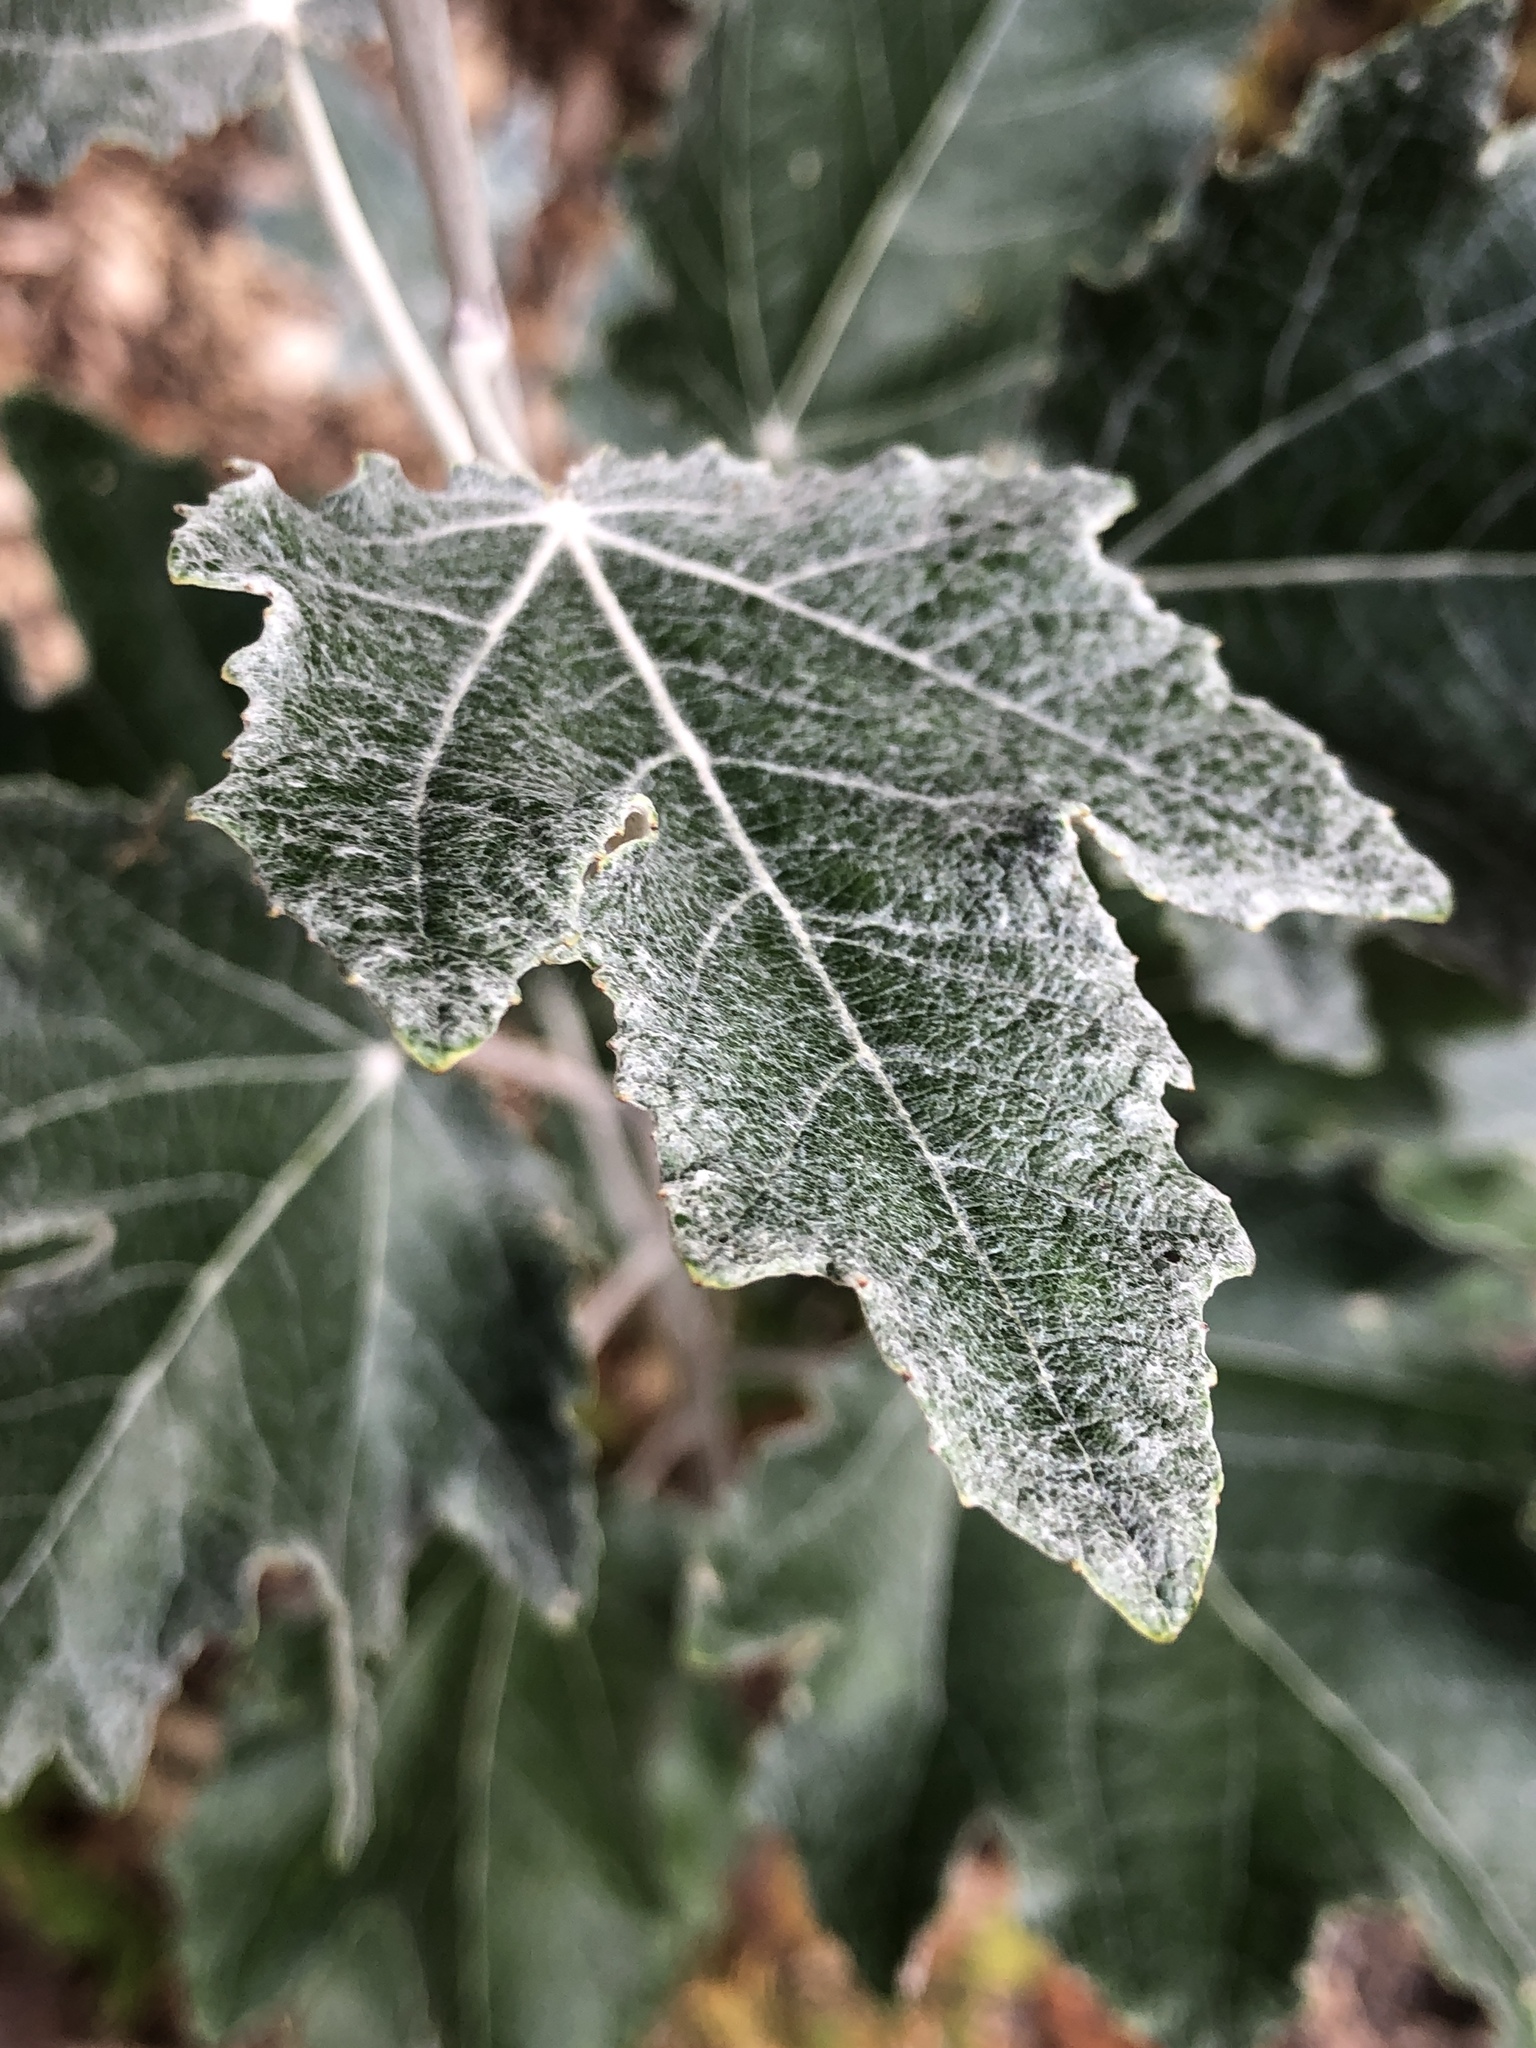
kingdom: Plantae
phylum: Tracheophyta
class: Magnoliopsida
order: Malpighiales
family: Salicaceae
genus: Populus
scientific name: Populus alba
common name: White poplar
